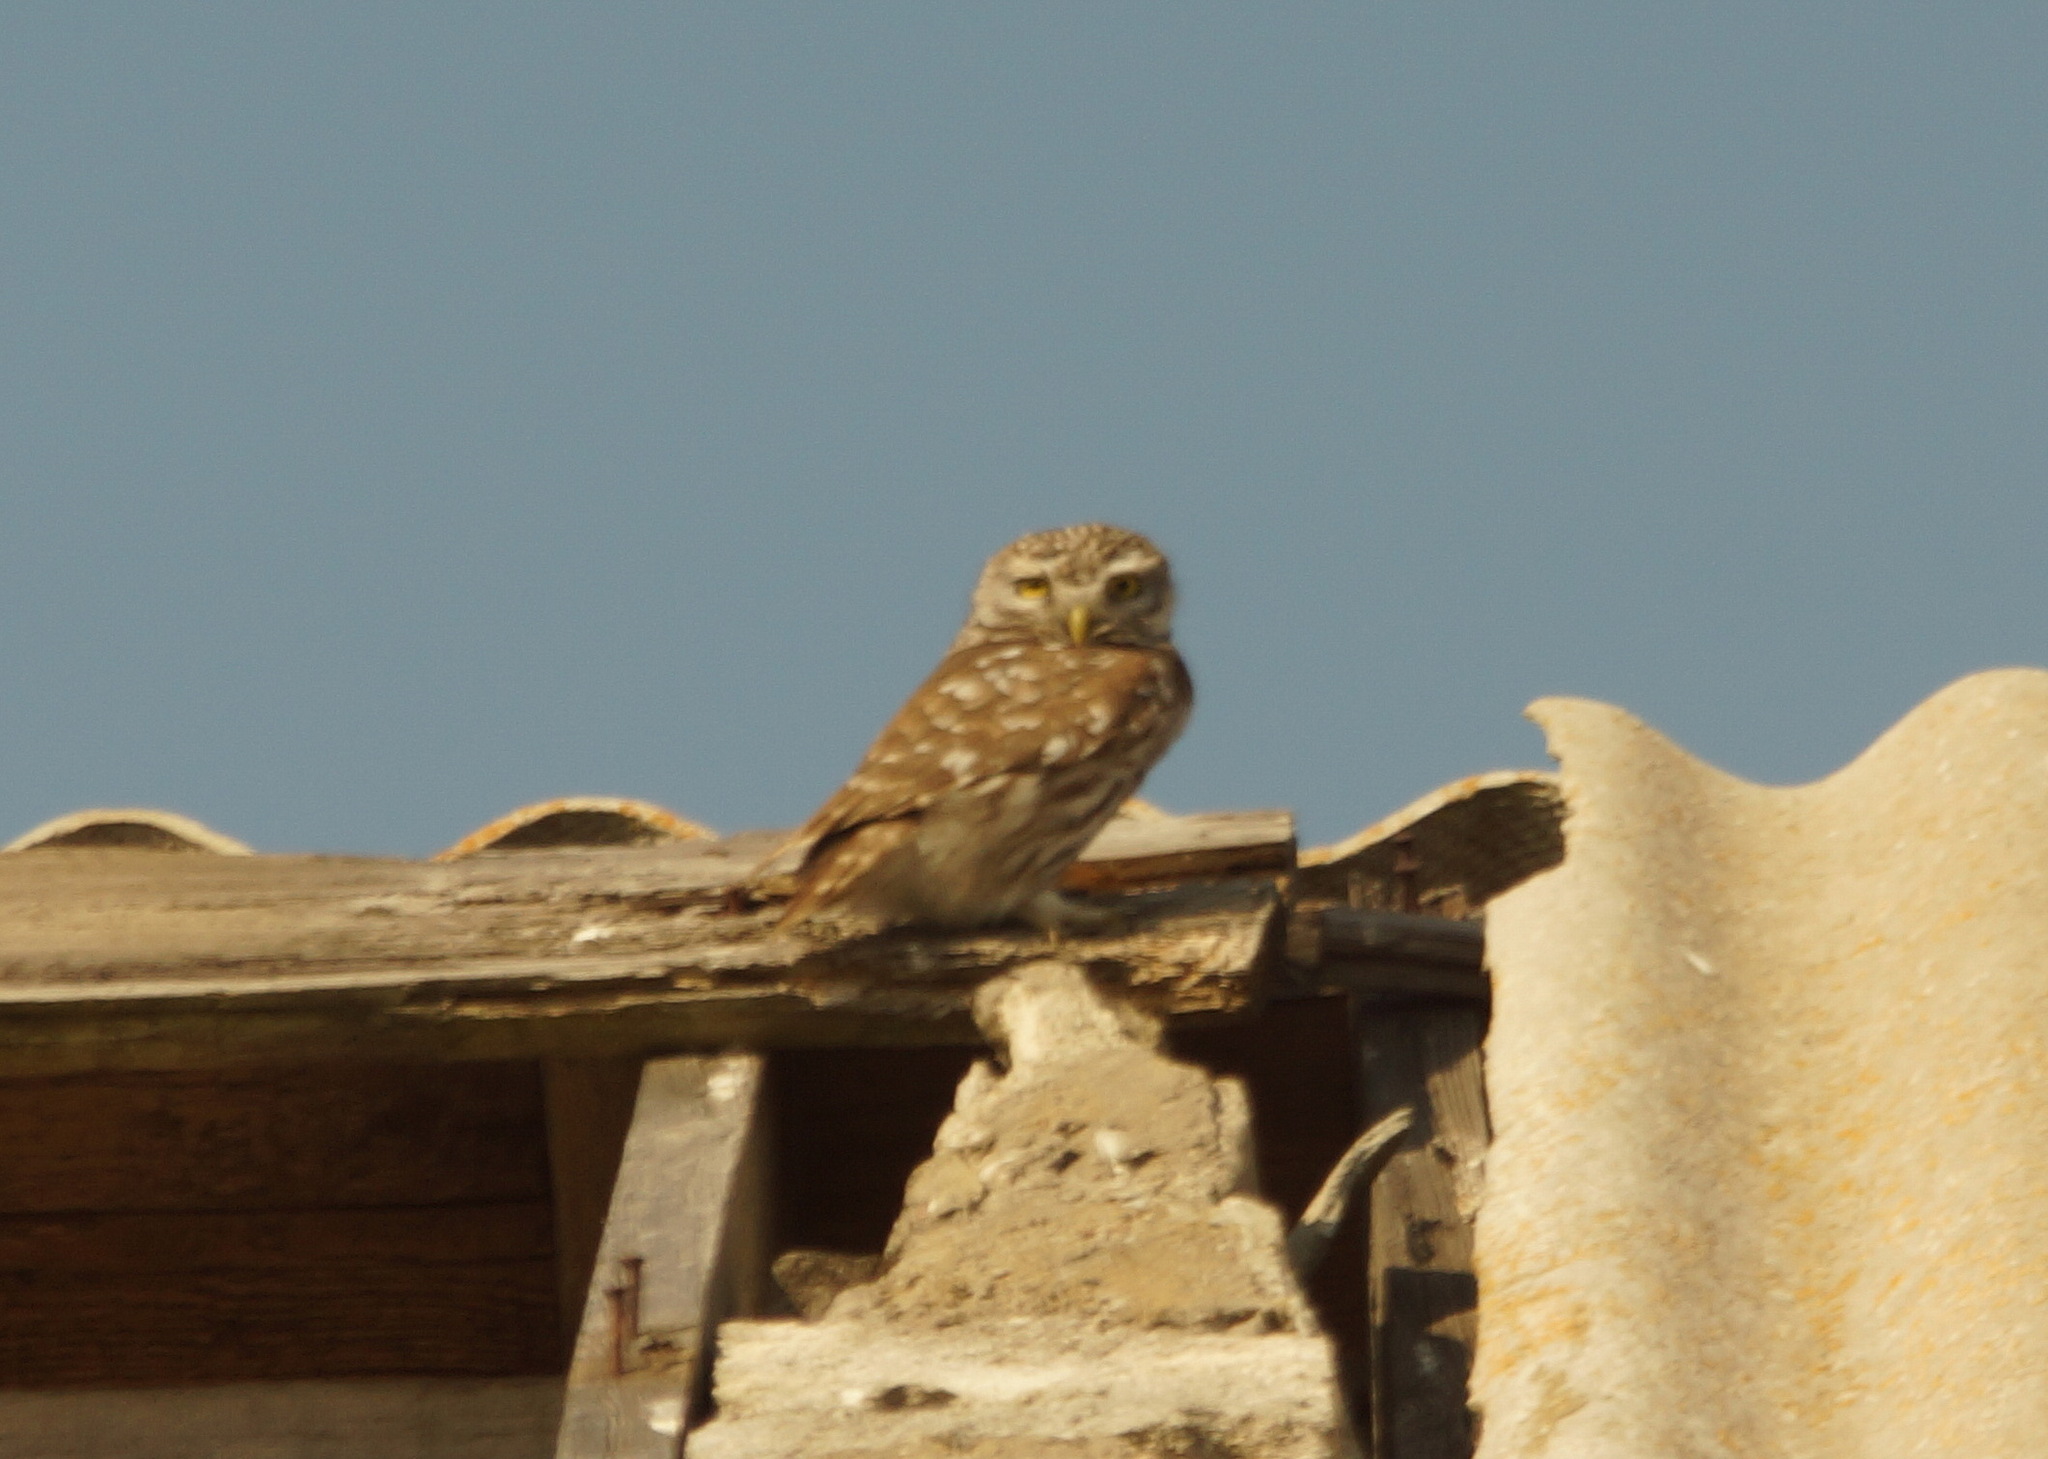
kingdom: Animalia
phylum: Chordata
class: Aves
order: Strigiformes
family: Strigidae
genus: Athene
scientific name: Athene noctua
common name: Little owl
